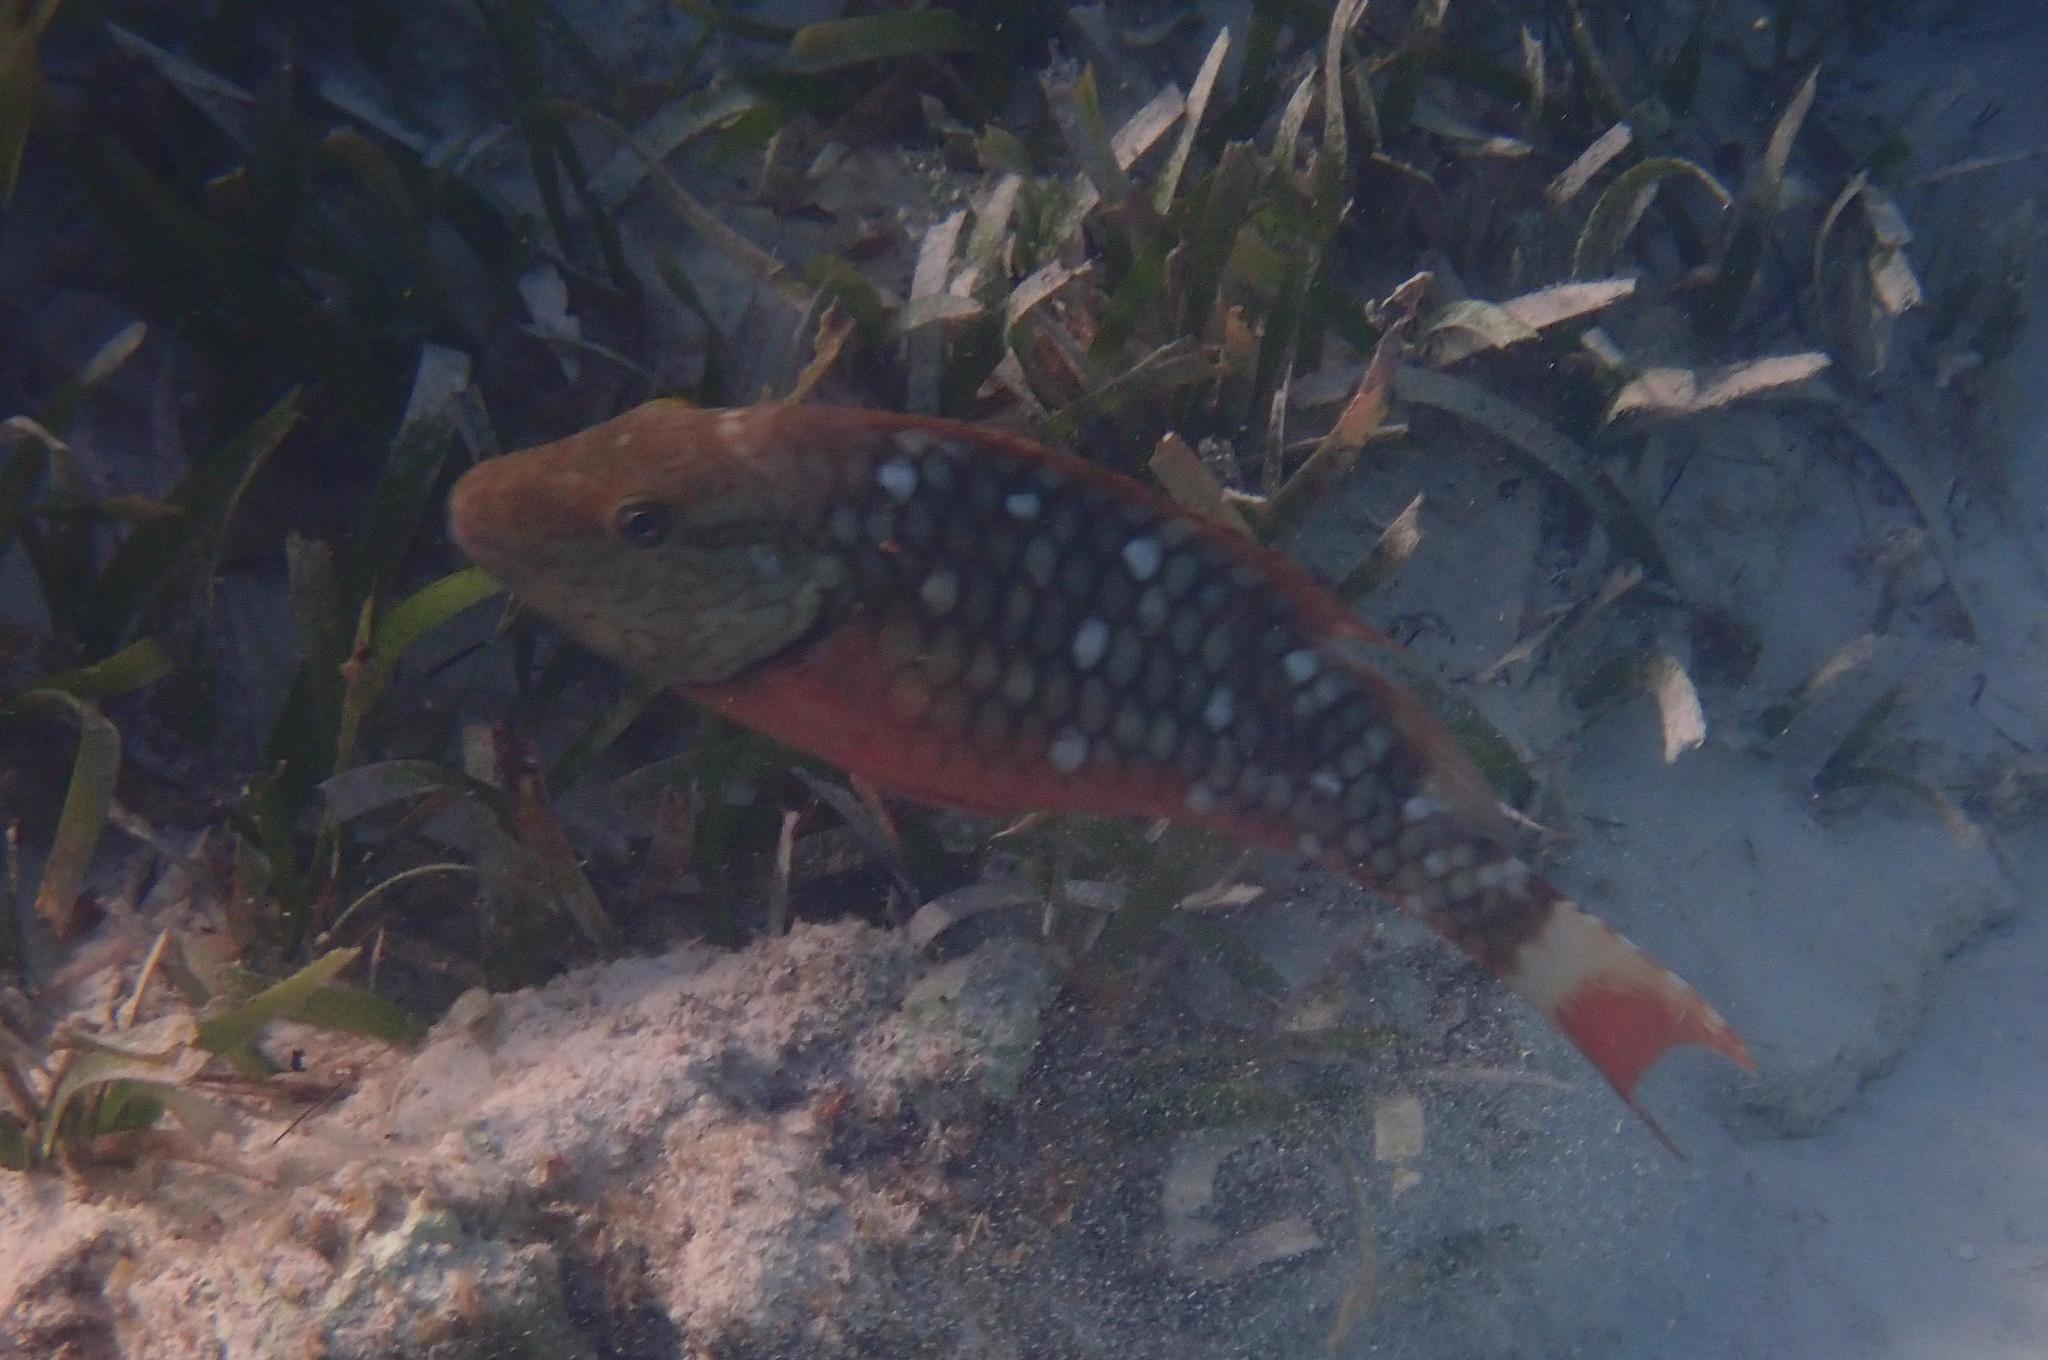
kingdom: Animalia
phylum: Chordata
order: Perciformes
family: Scaridae
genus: Sparisoma
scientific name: Sparisoma viride
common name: Stoplight parrotfish
